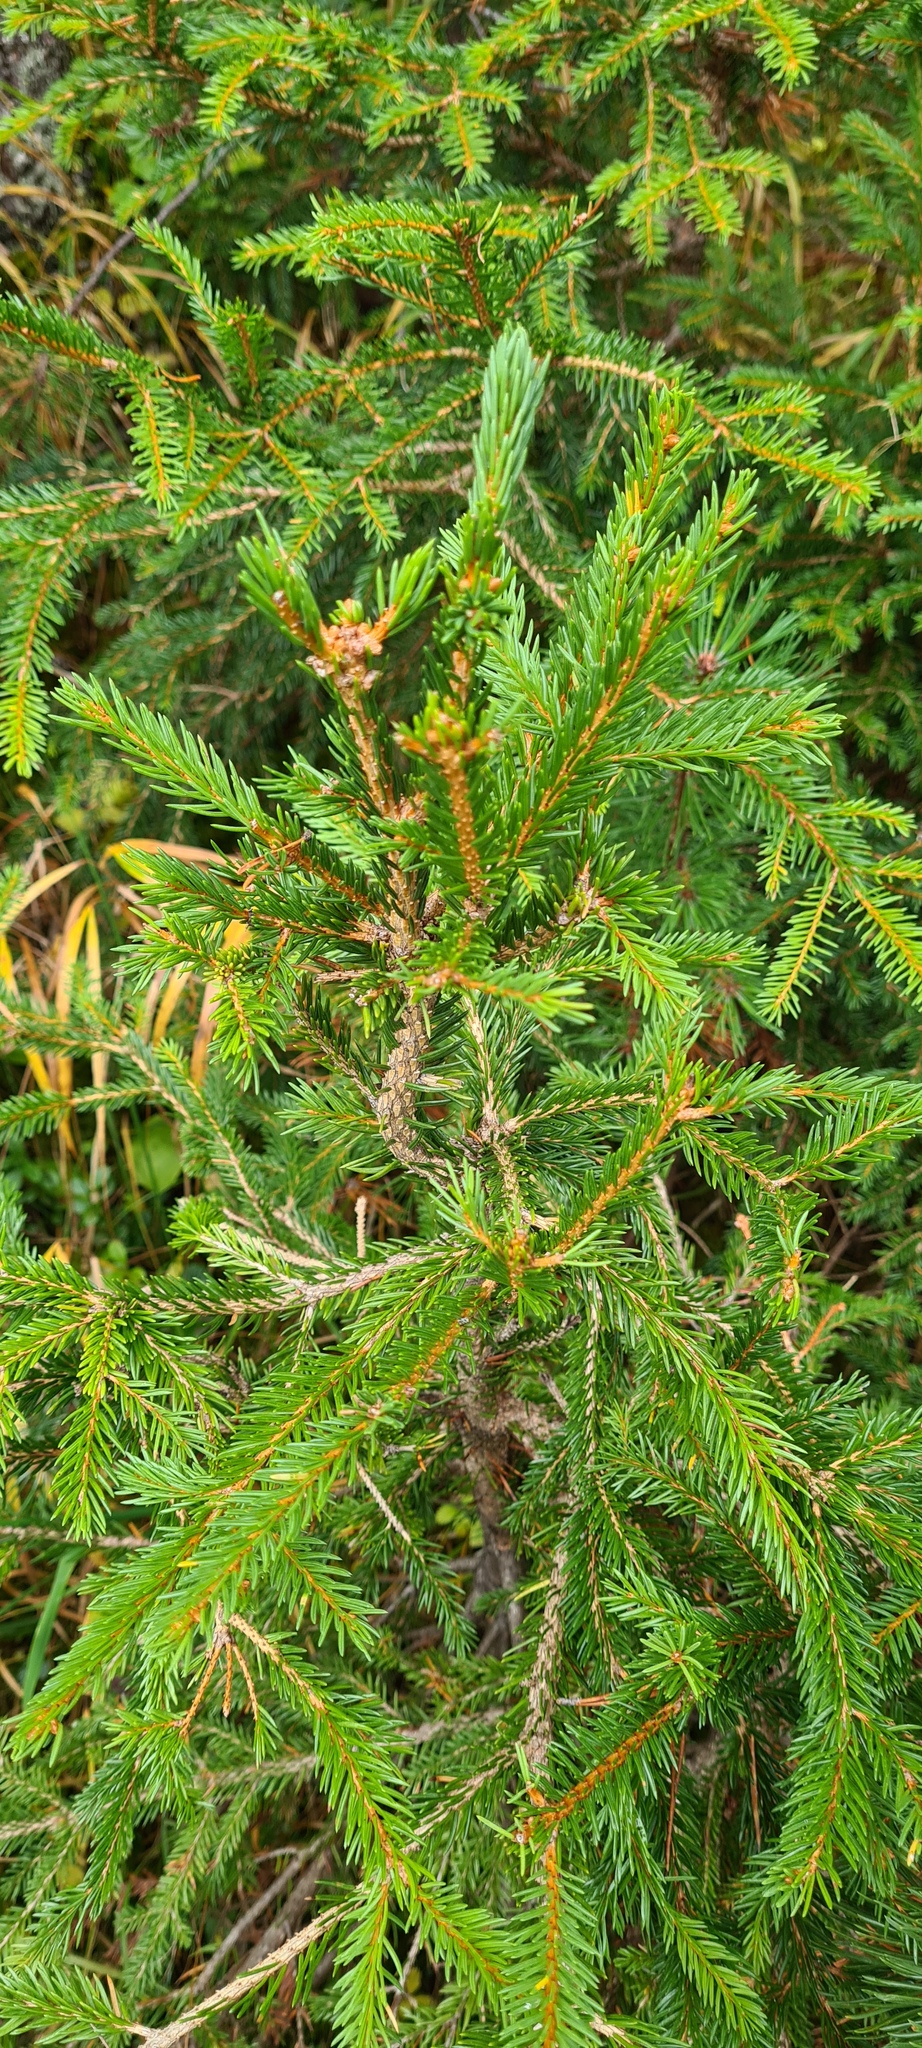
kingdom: Plantae
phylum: Tracheophyta
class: Pinopsida
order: Pinales
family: Pinaceae
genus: Picea
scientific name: Picea abies
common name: Norway spruce
